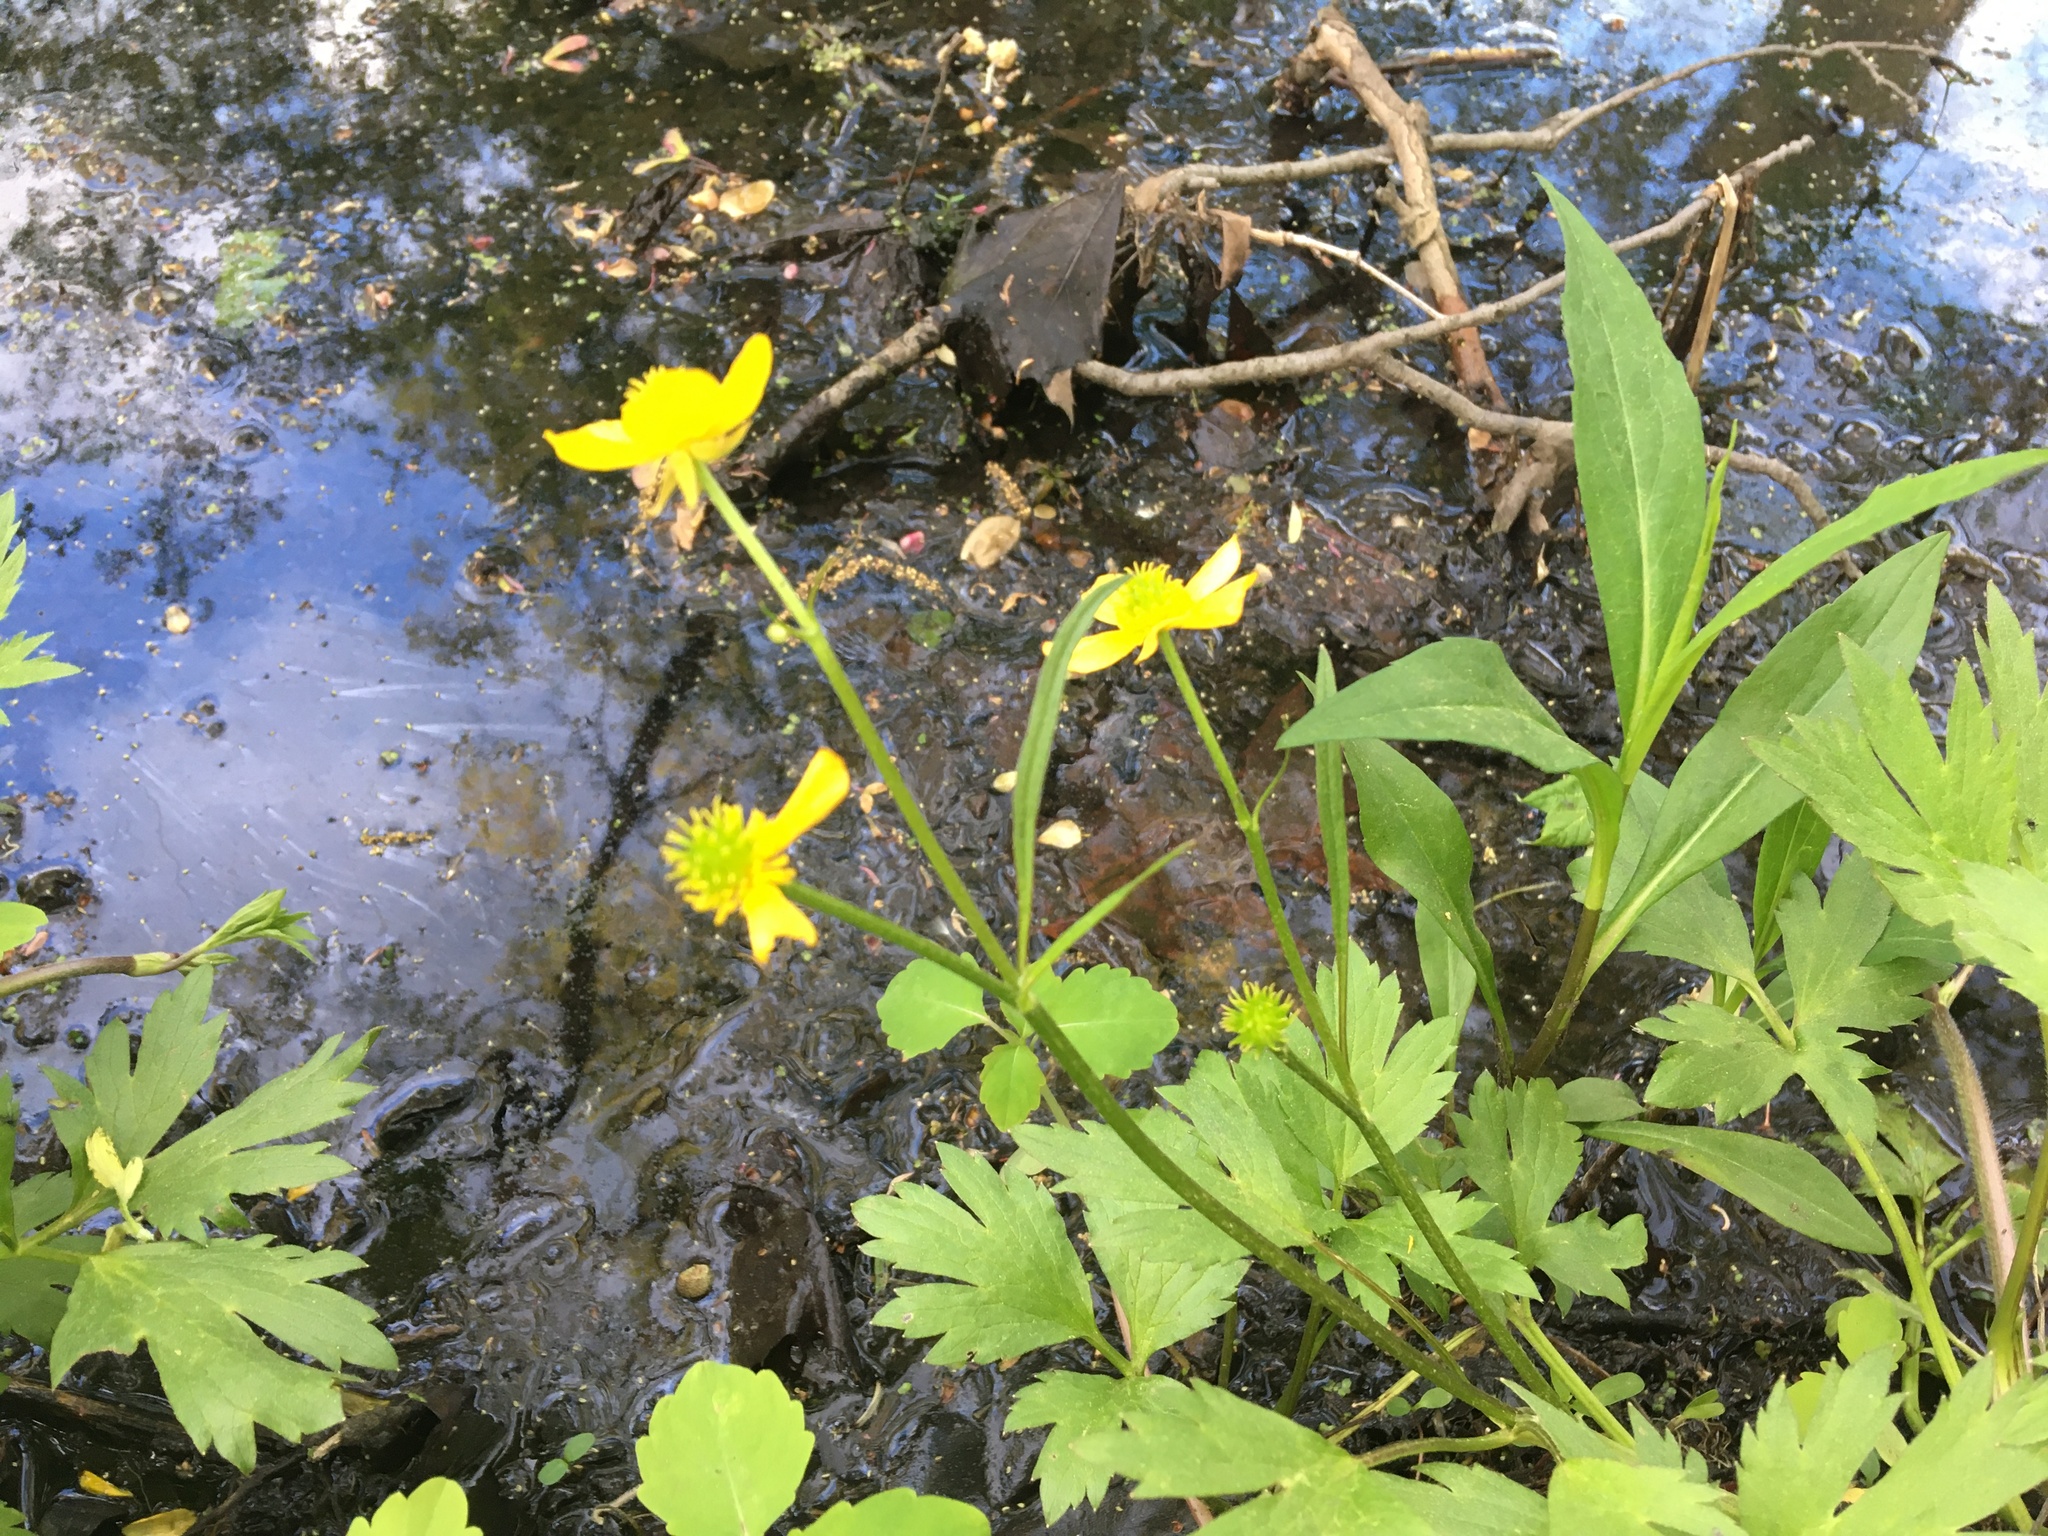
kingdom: Plantae
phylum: Tracheophyta
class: Magnoliopsida
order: Ranunculales
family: Ranunculaceae
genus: Ranunculus
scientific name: Ranunculus hispidus
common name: Bristly buttercup
